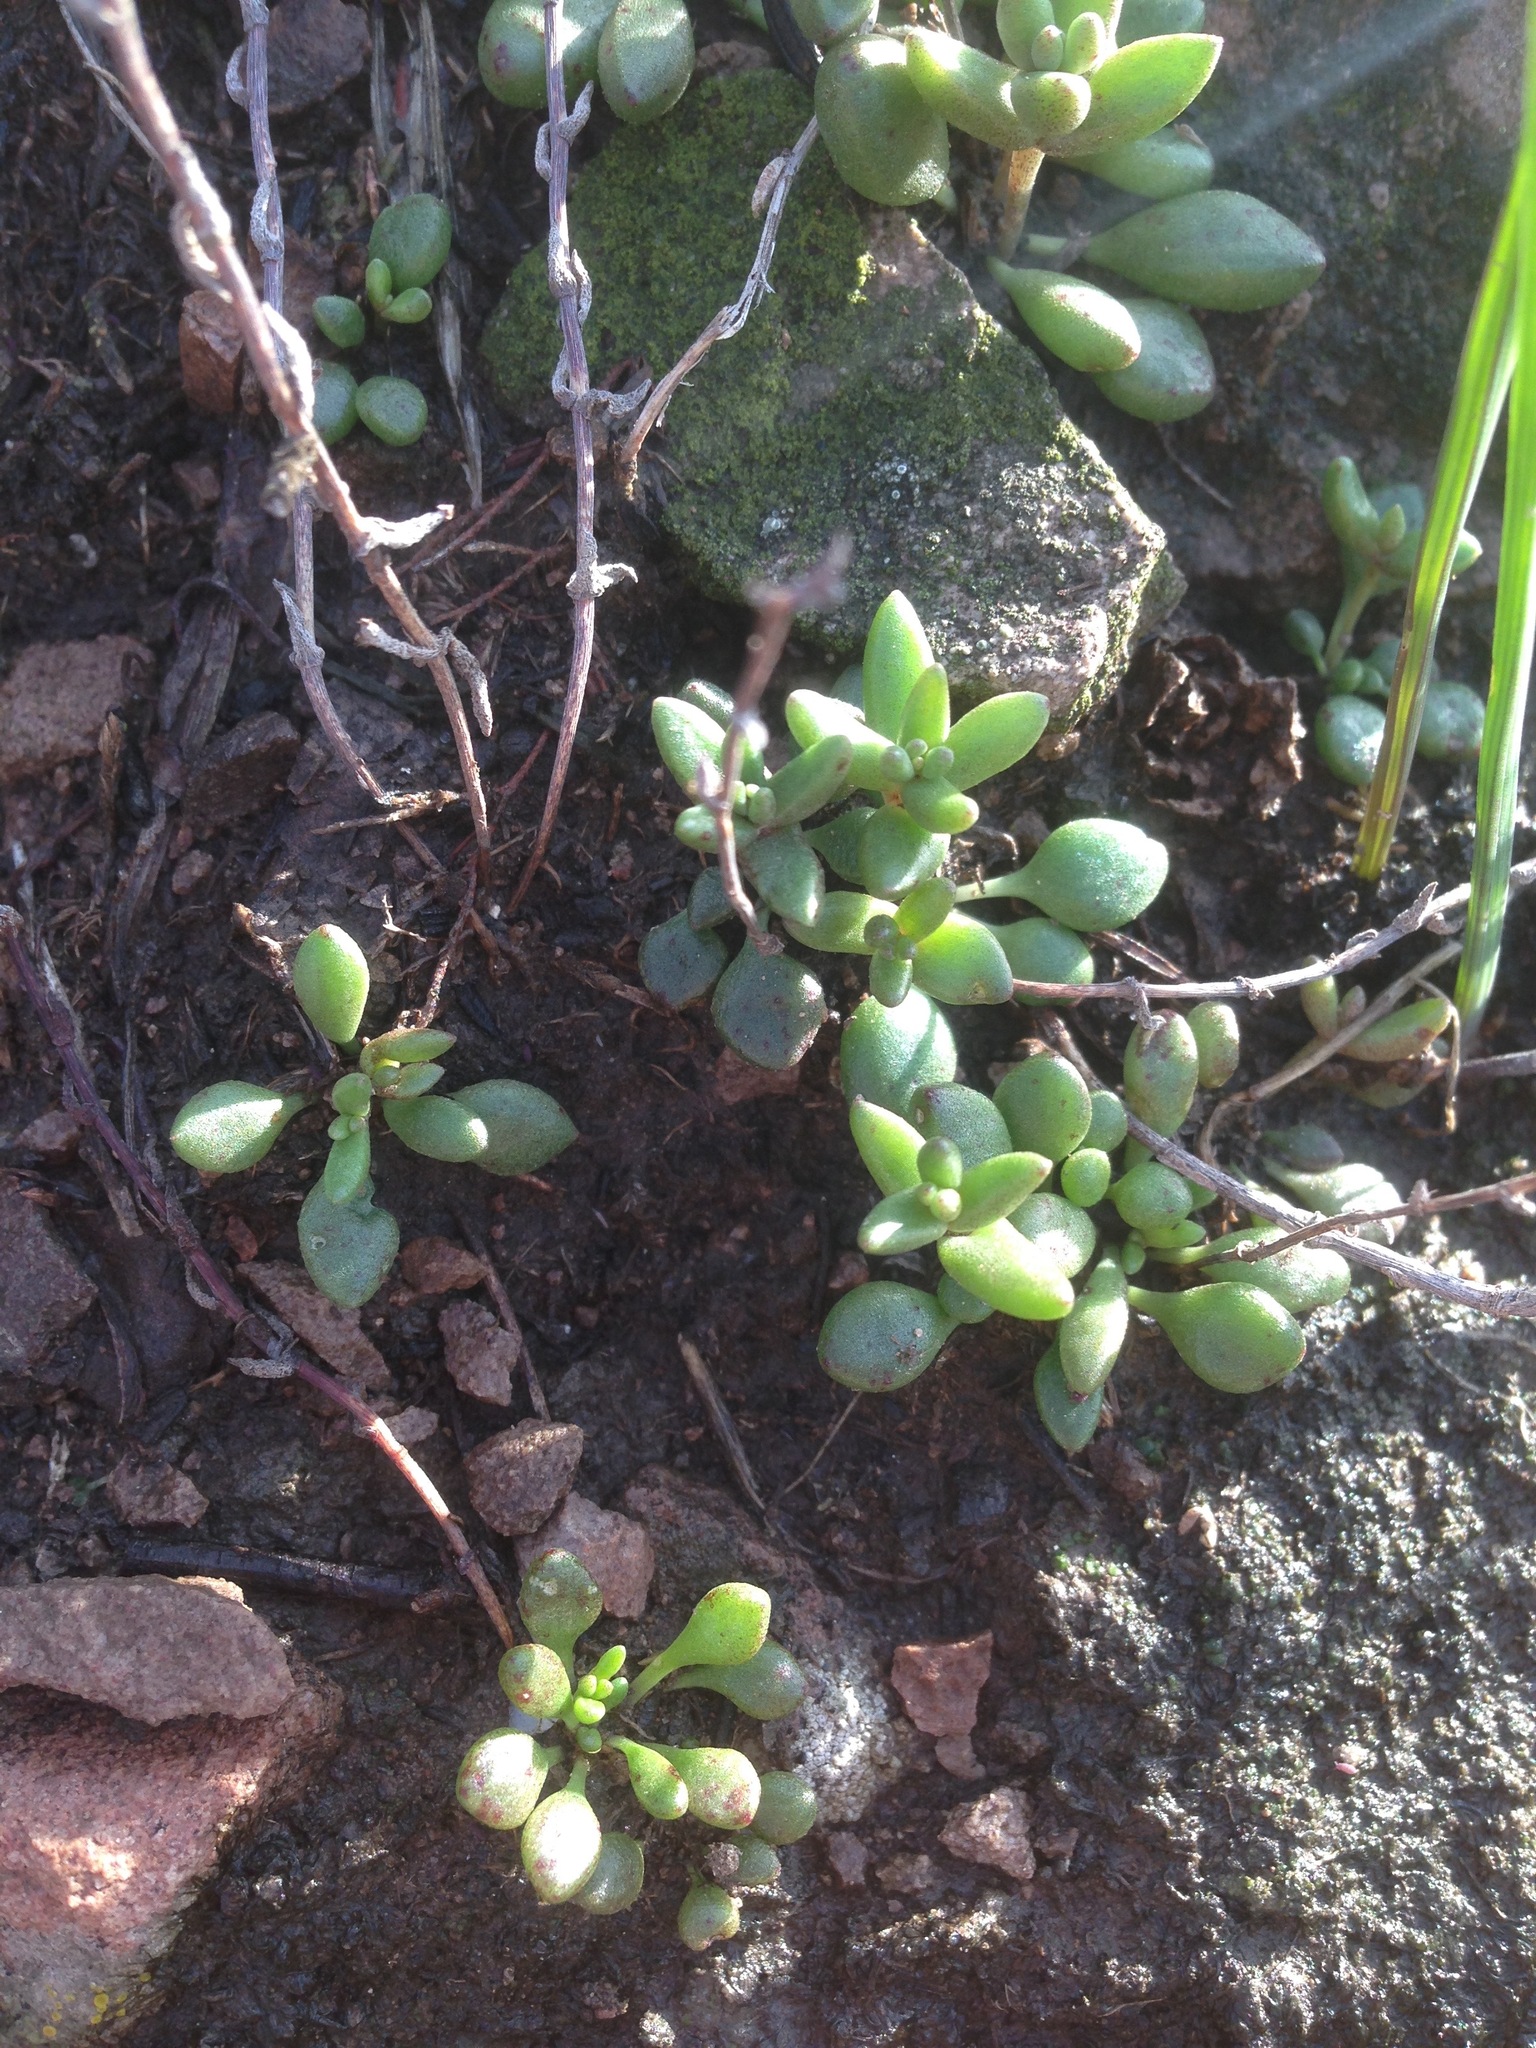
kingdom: Plantae
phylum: Tracheophyta
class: Magnoliopsida
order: Saxifragales
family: Crassulaceae
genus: Dudleya
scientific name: Dudleya blochmaniae
